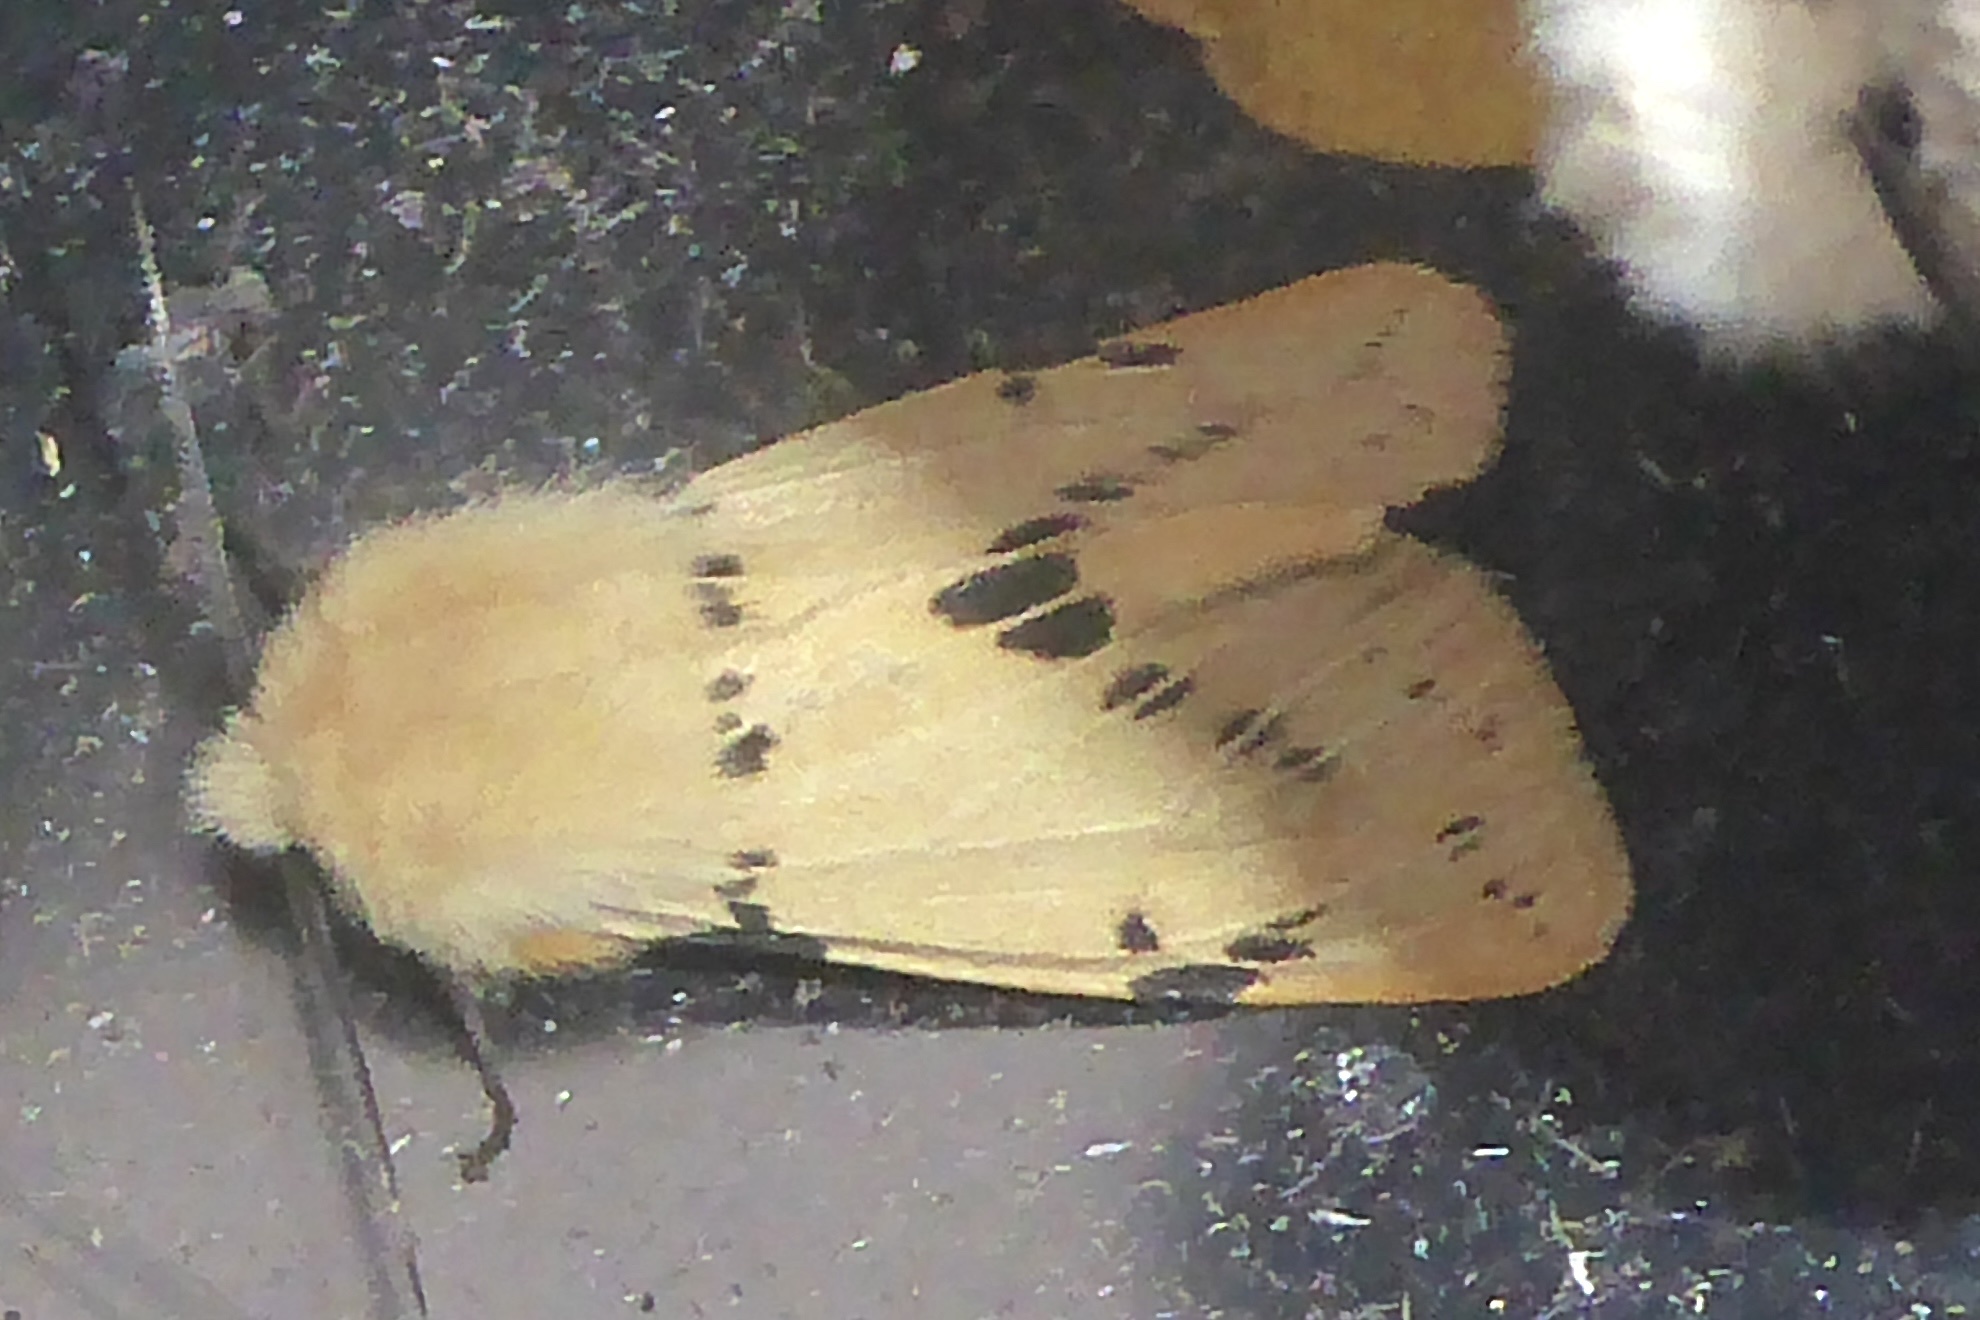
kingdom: Animalia
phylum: Arthropoda
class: Insecta
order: Lepidoptera
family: Erebidae
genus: Spilarctia
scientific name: Spilarctia lutea
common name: Buff ermine
